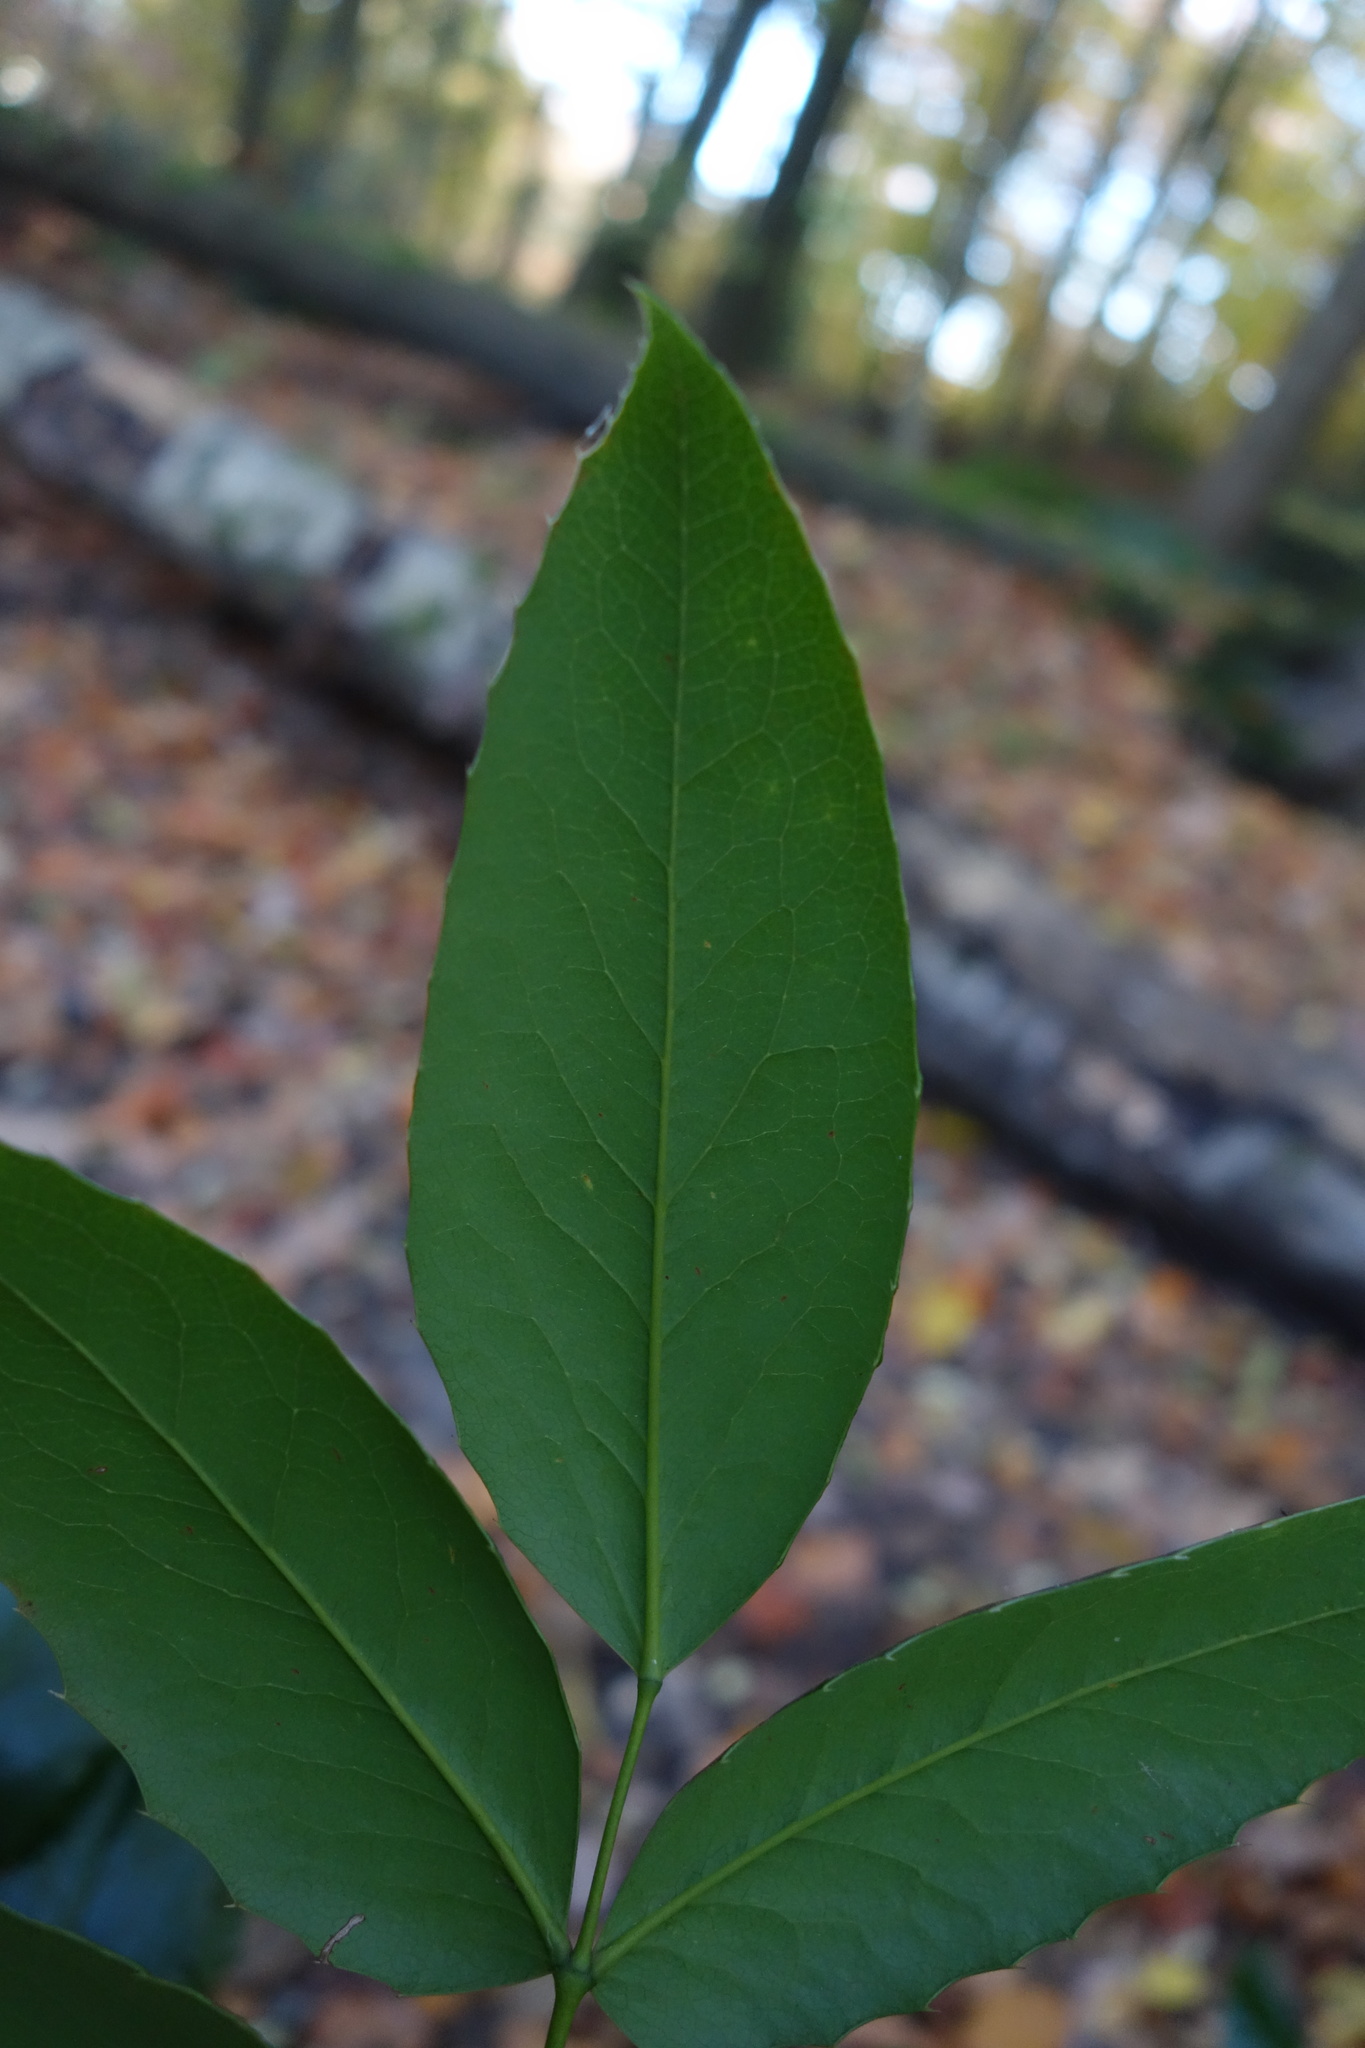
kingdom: Plantae
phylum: Tracheophyta
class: Magnoliopsida
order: Ranunculales
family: Berberidaceae
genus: Mahonia
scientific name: Mahonia aquifolium
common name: Oregon-grape
